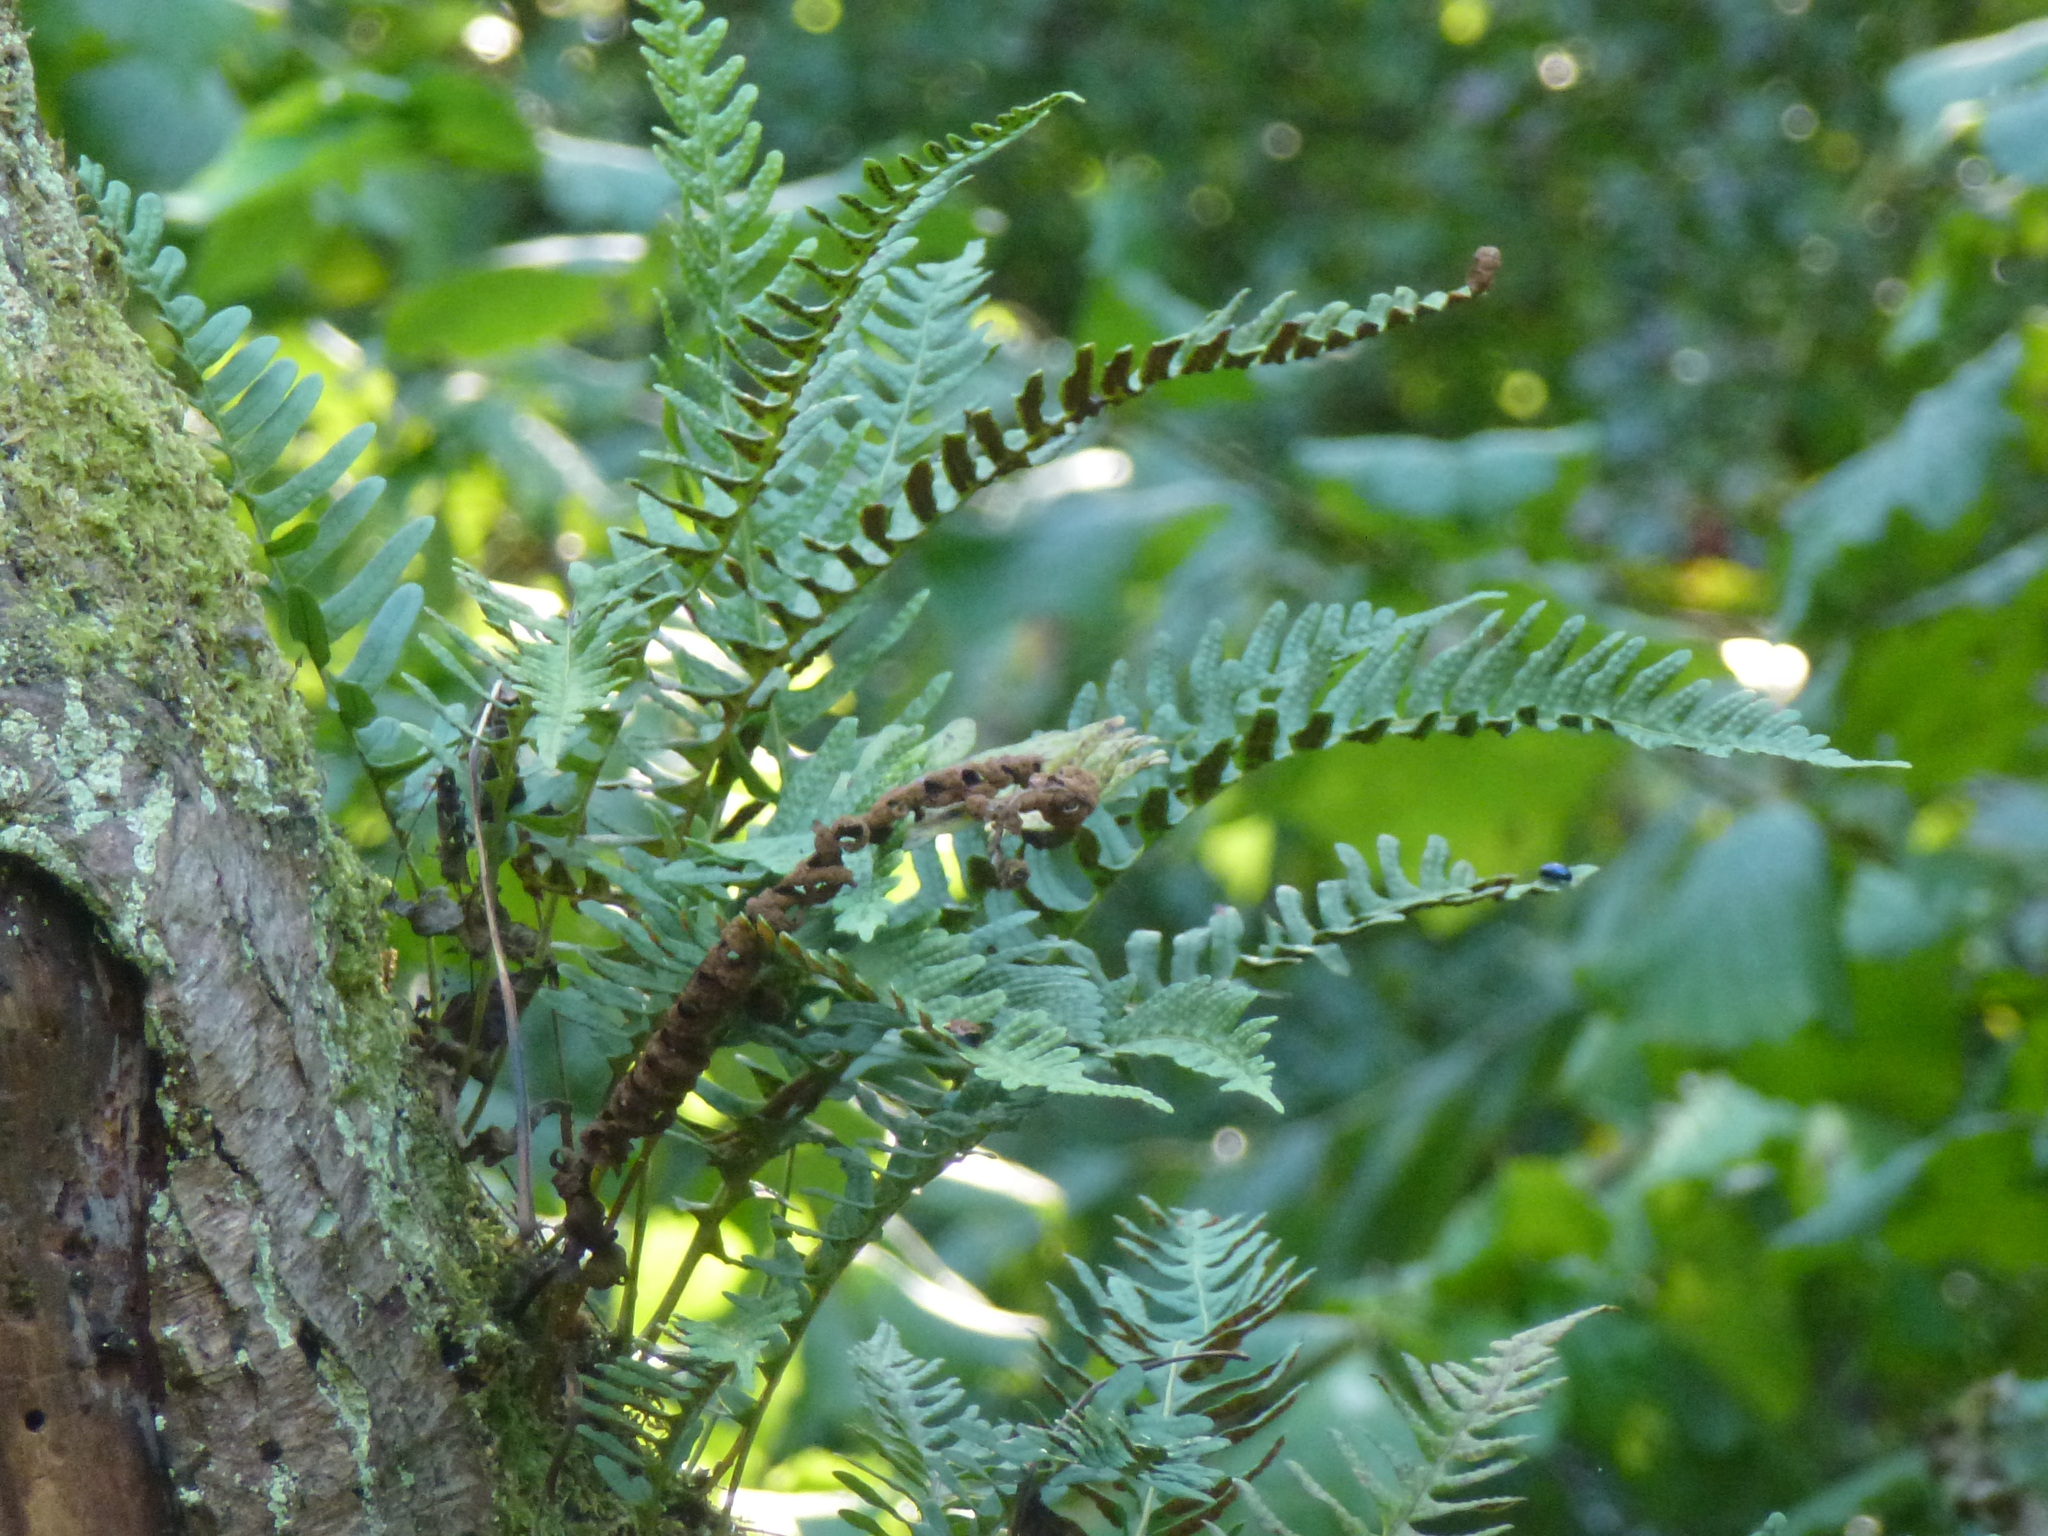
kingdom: Plantae
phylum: Tracheophyta
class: Polypodiopsida
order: Polypodiales
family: Polypodiaceae
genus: Polypodium
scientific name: Polypodium vulgare
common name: Common polypody
